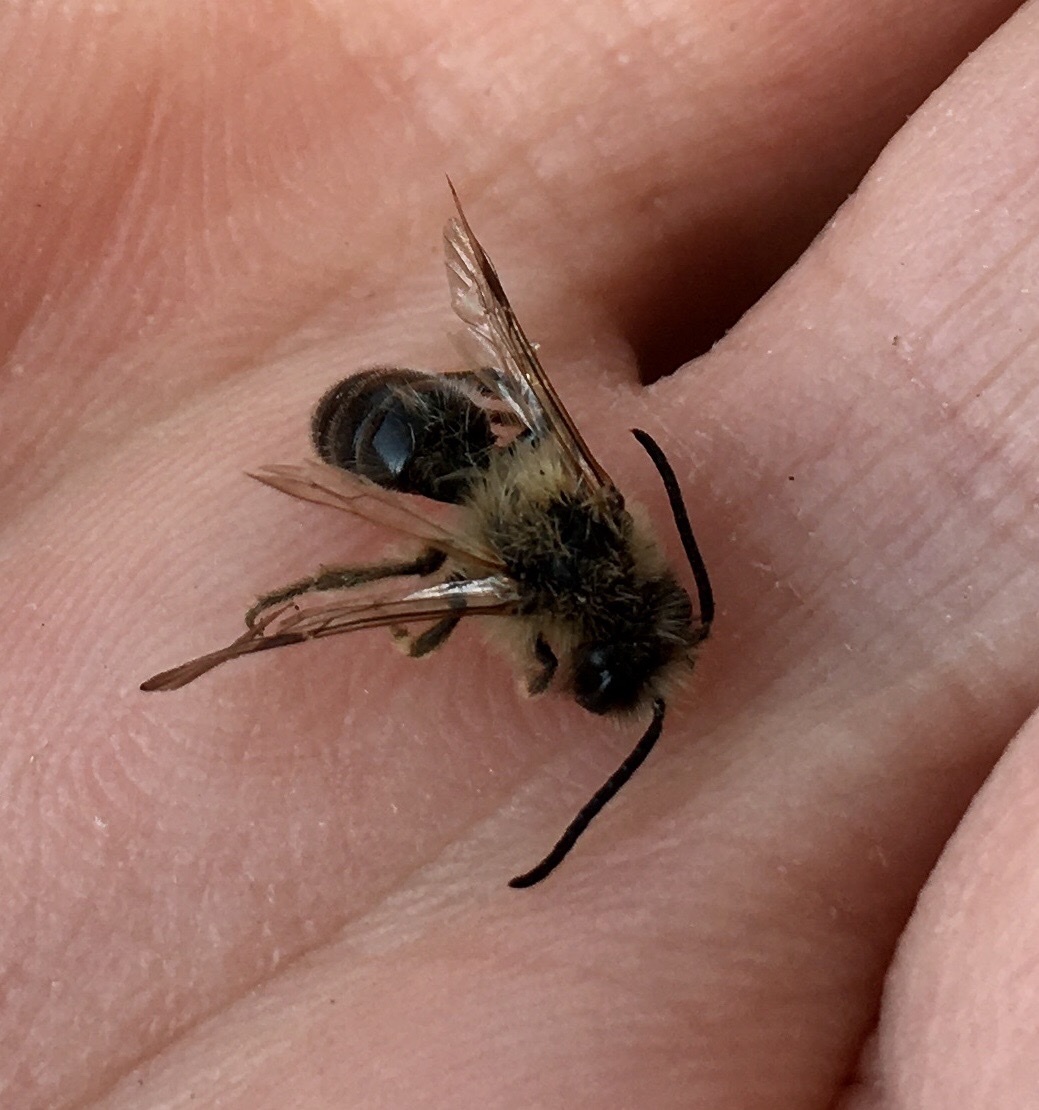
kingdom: Animalia
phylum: Arthropoda
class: Insecta
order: Hymenoptera
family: Andrenidae
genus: Andrena
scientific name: Andrena carantonica
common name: Chocolate mining bee
